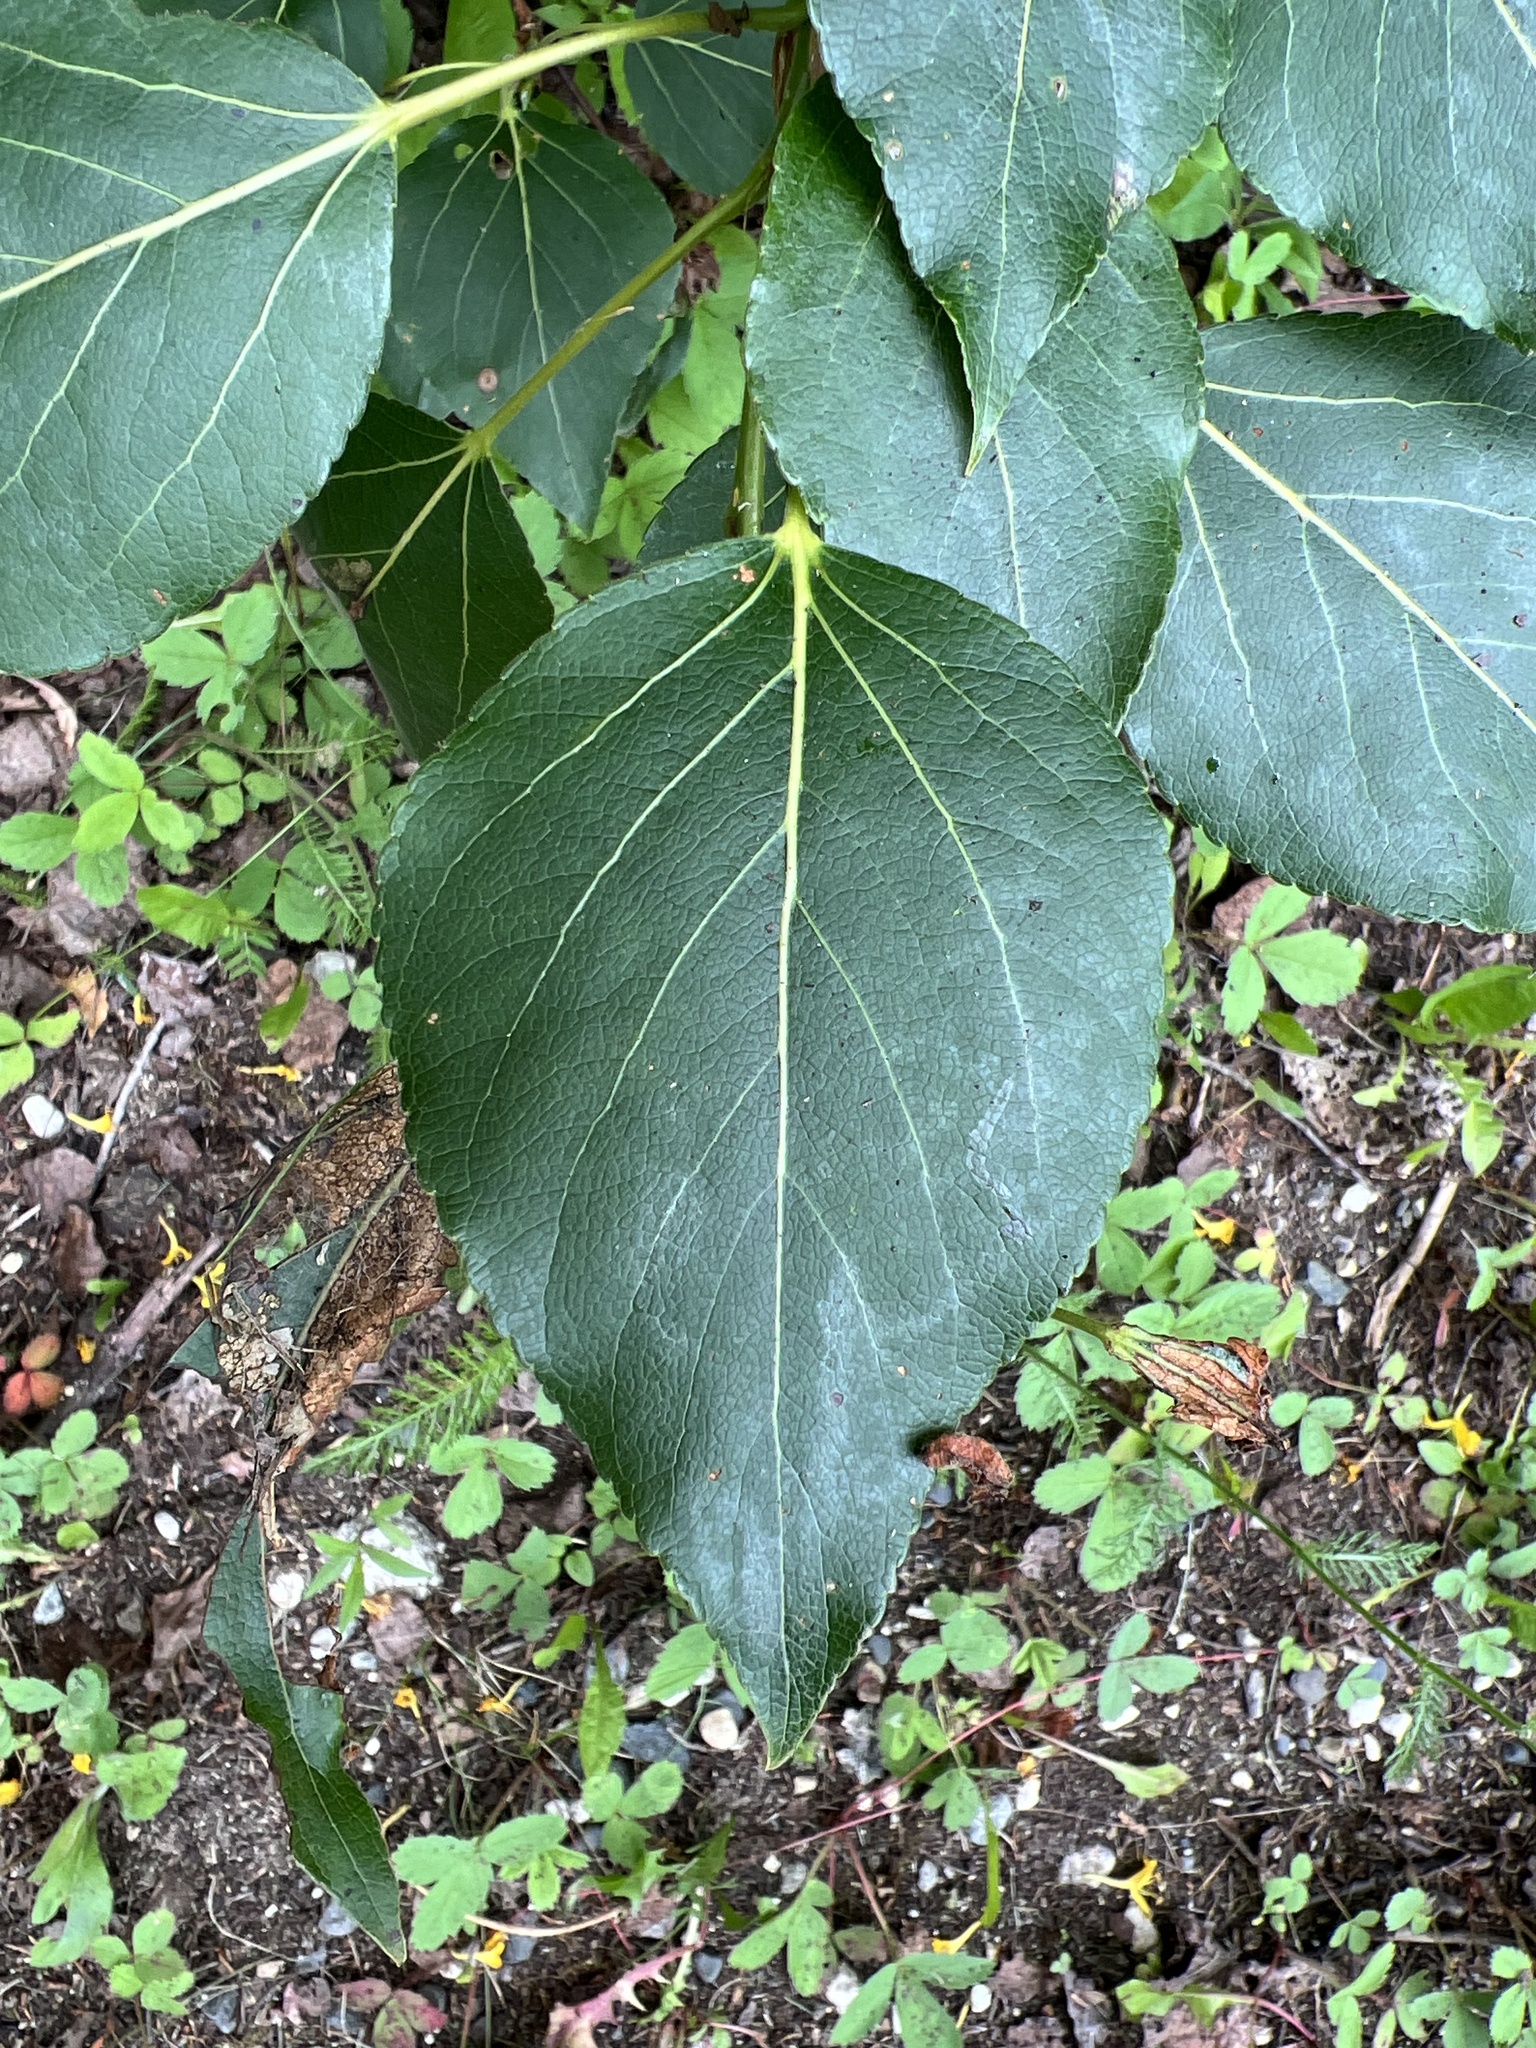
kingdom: Plantae
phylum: Tracheophyta
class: Magnoliopsida
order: Malpighiales
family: Salicaceae
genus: Populus
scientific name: Populus balsamifera
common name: Balsam poplar
